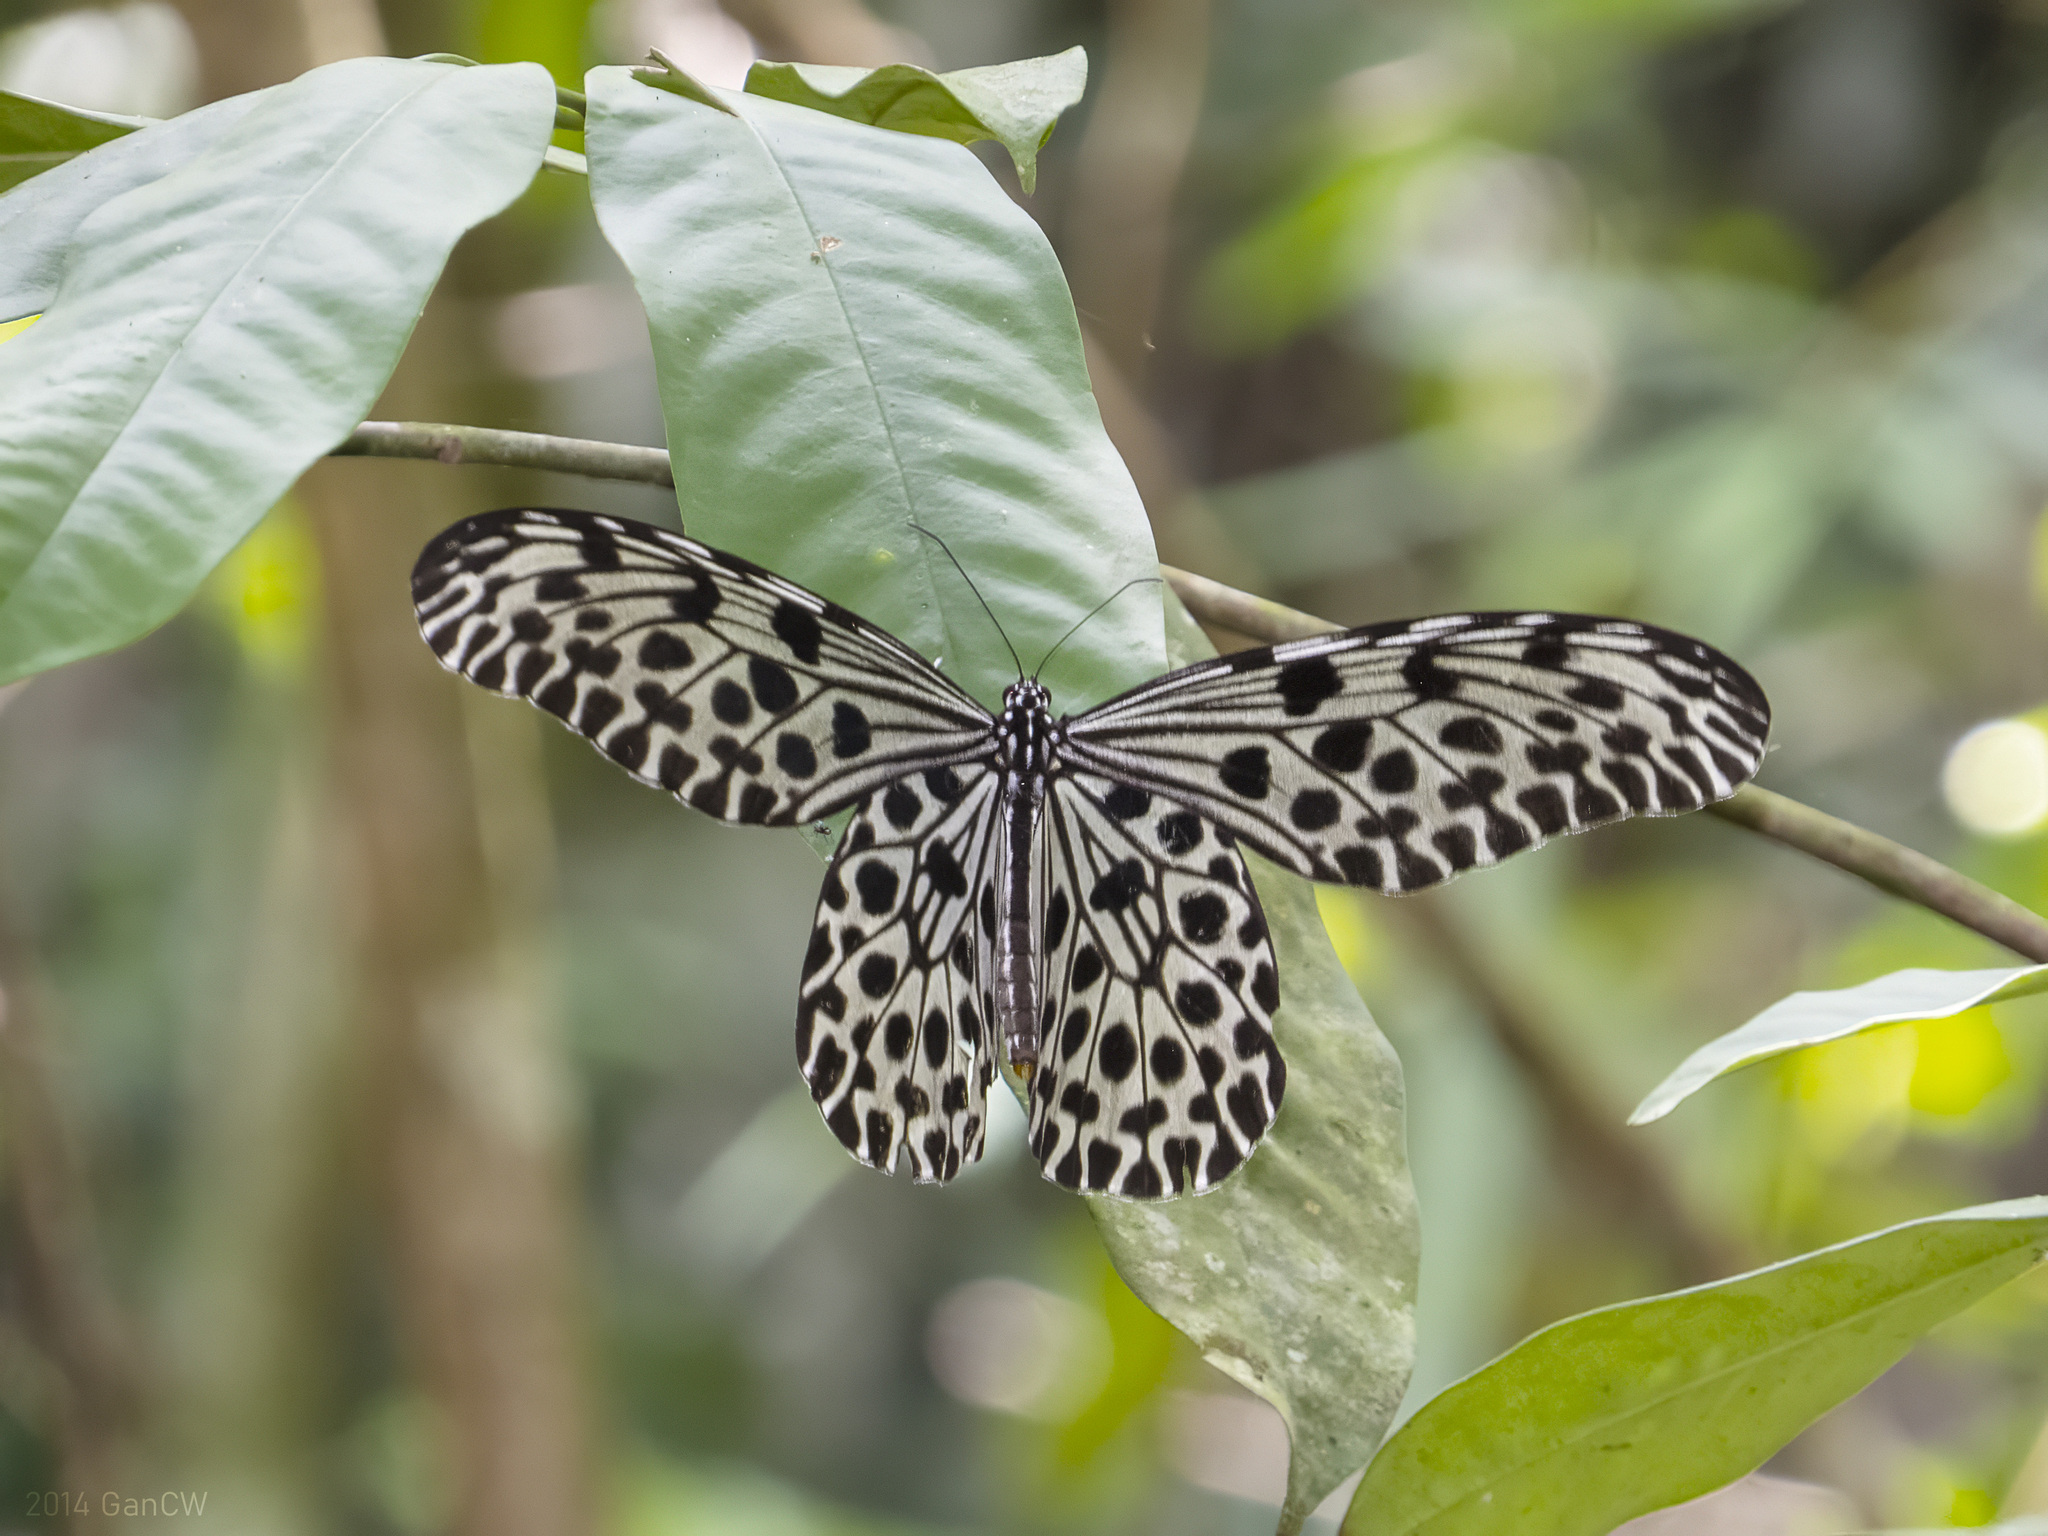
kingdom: Animalia
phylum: Arthropoda
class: Insecta
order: Lepidoptera
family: Nymphalidae
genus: Idea
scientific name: Idea lynceus
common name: Giant tree nymph
